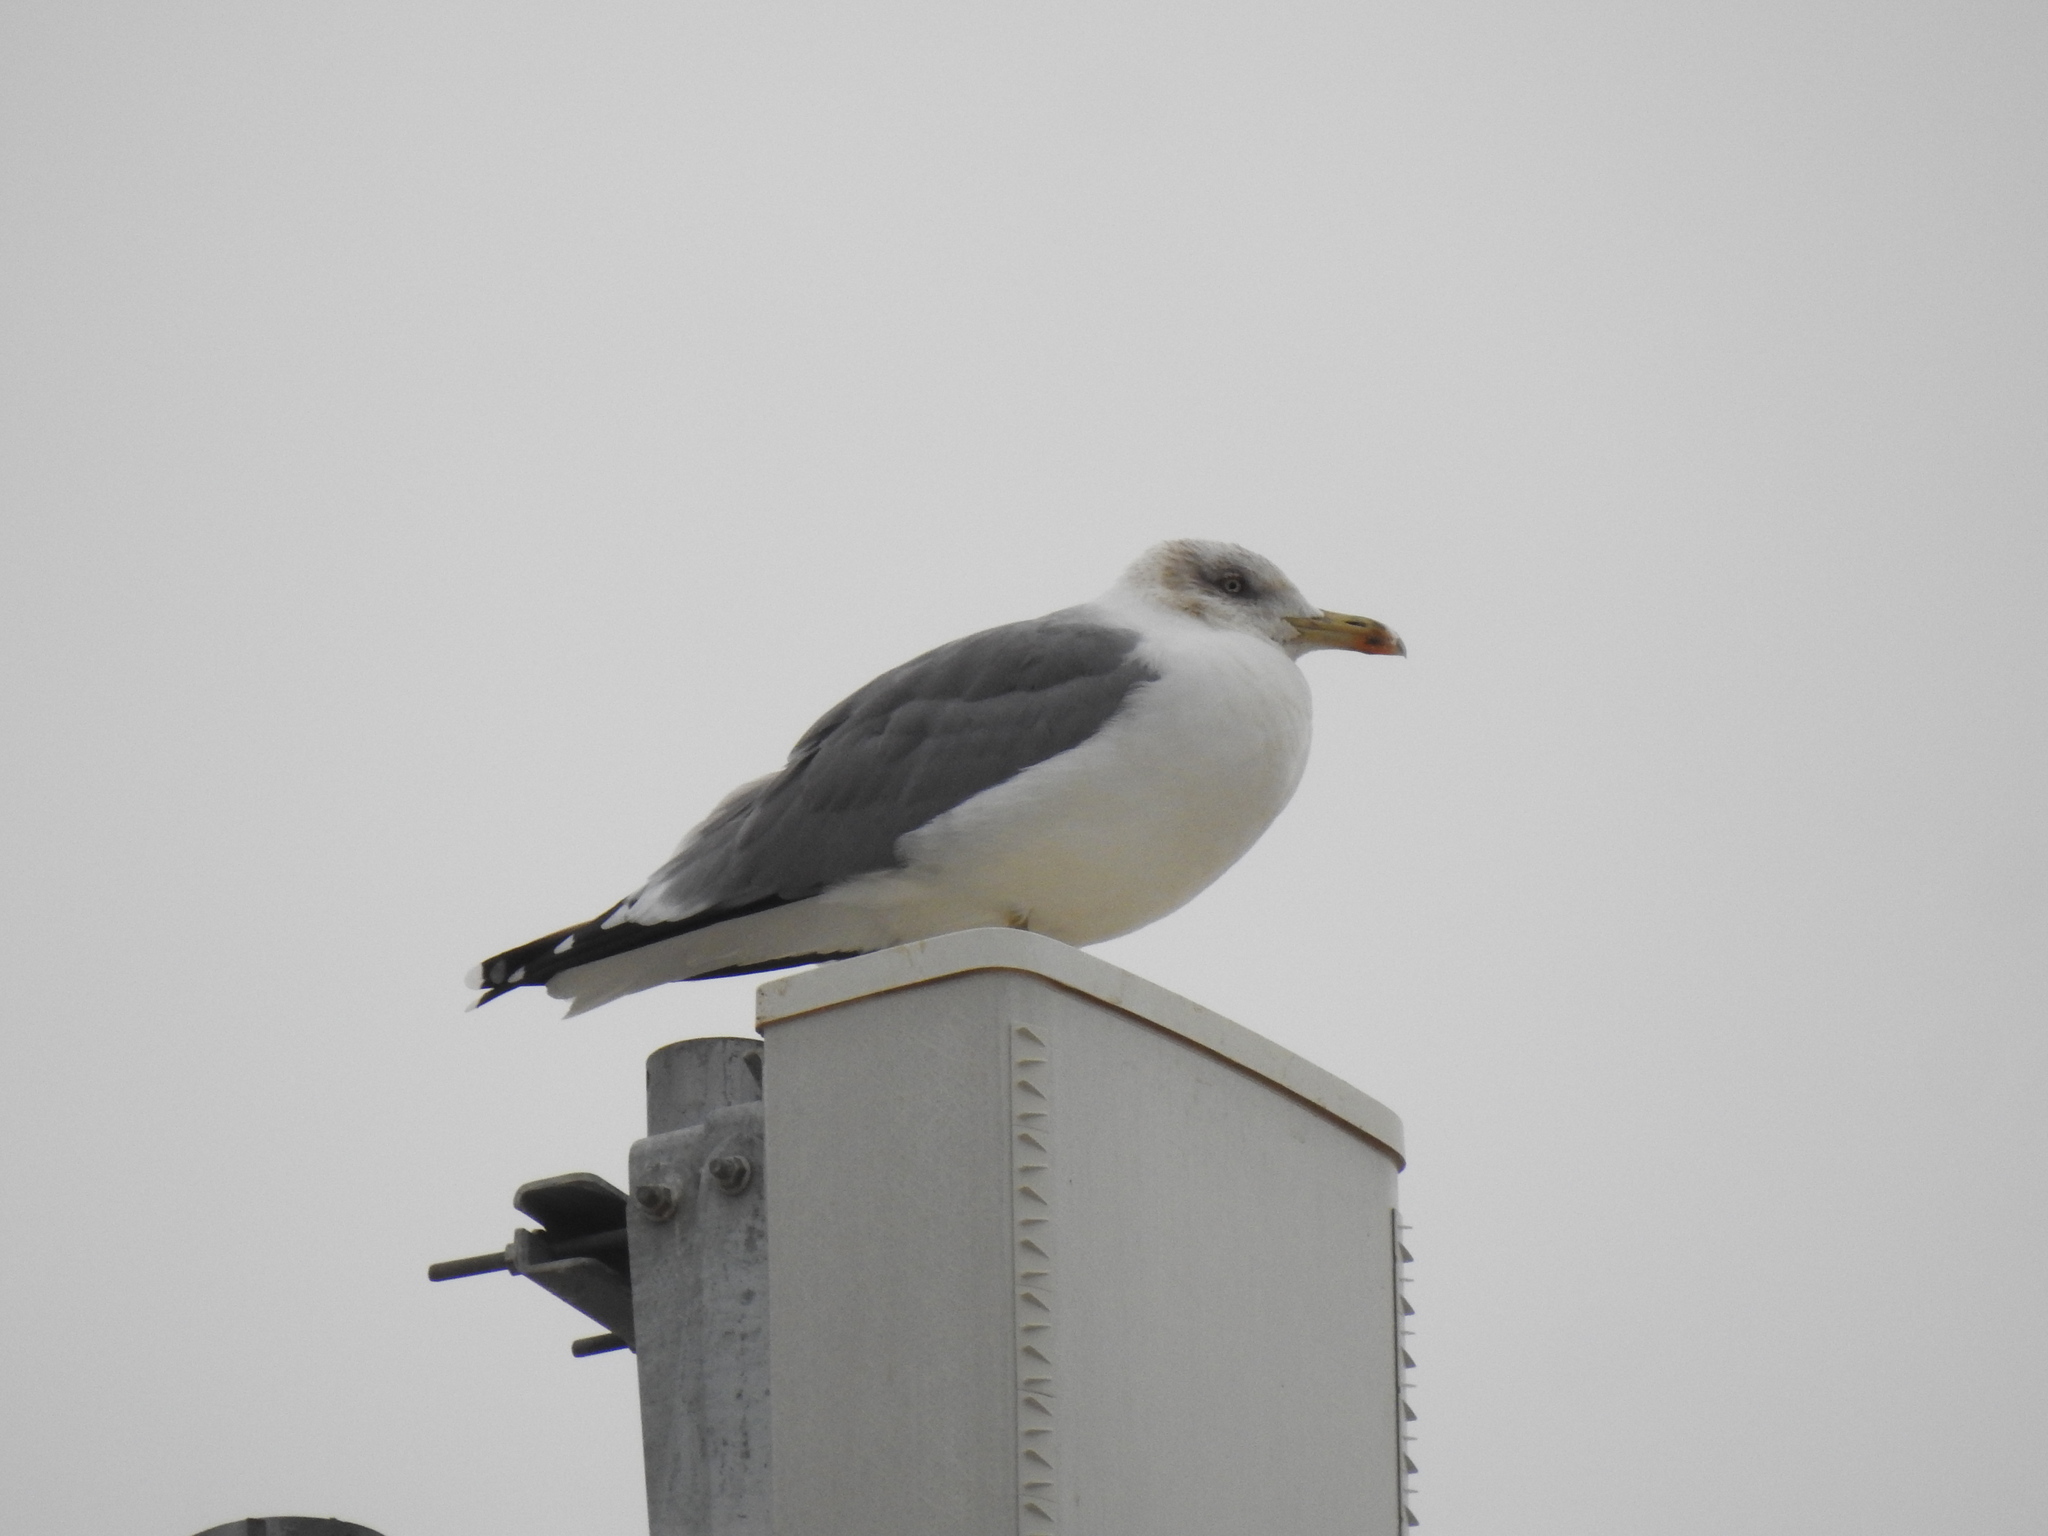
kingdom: Animalia
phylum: Chordata
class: Aves
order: Charadriiformes
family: Laridae
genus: Larus
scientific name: Larus michahellis
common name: Yellow-legged gull
